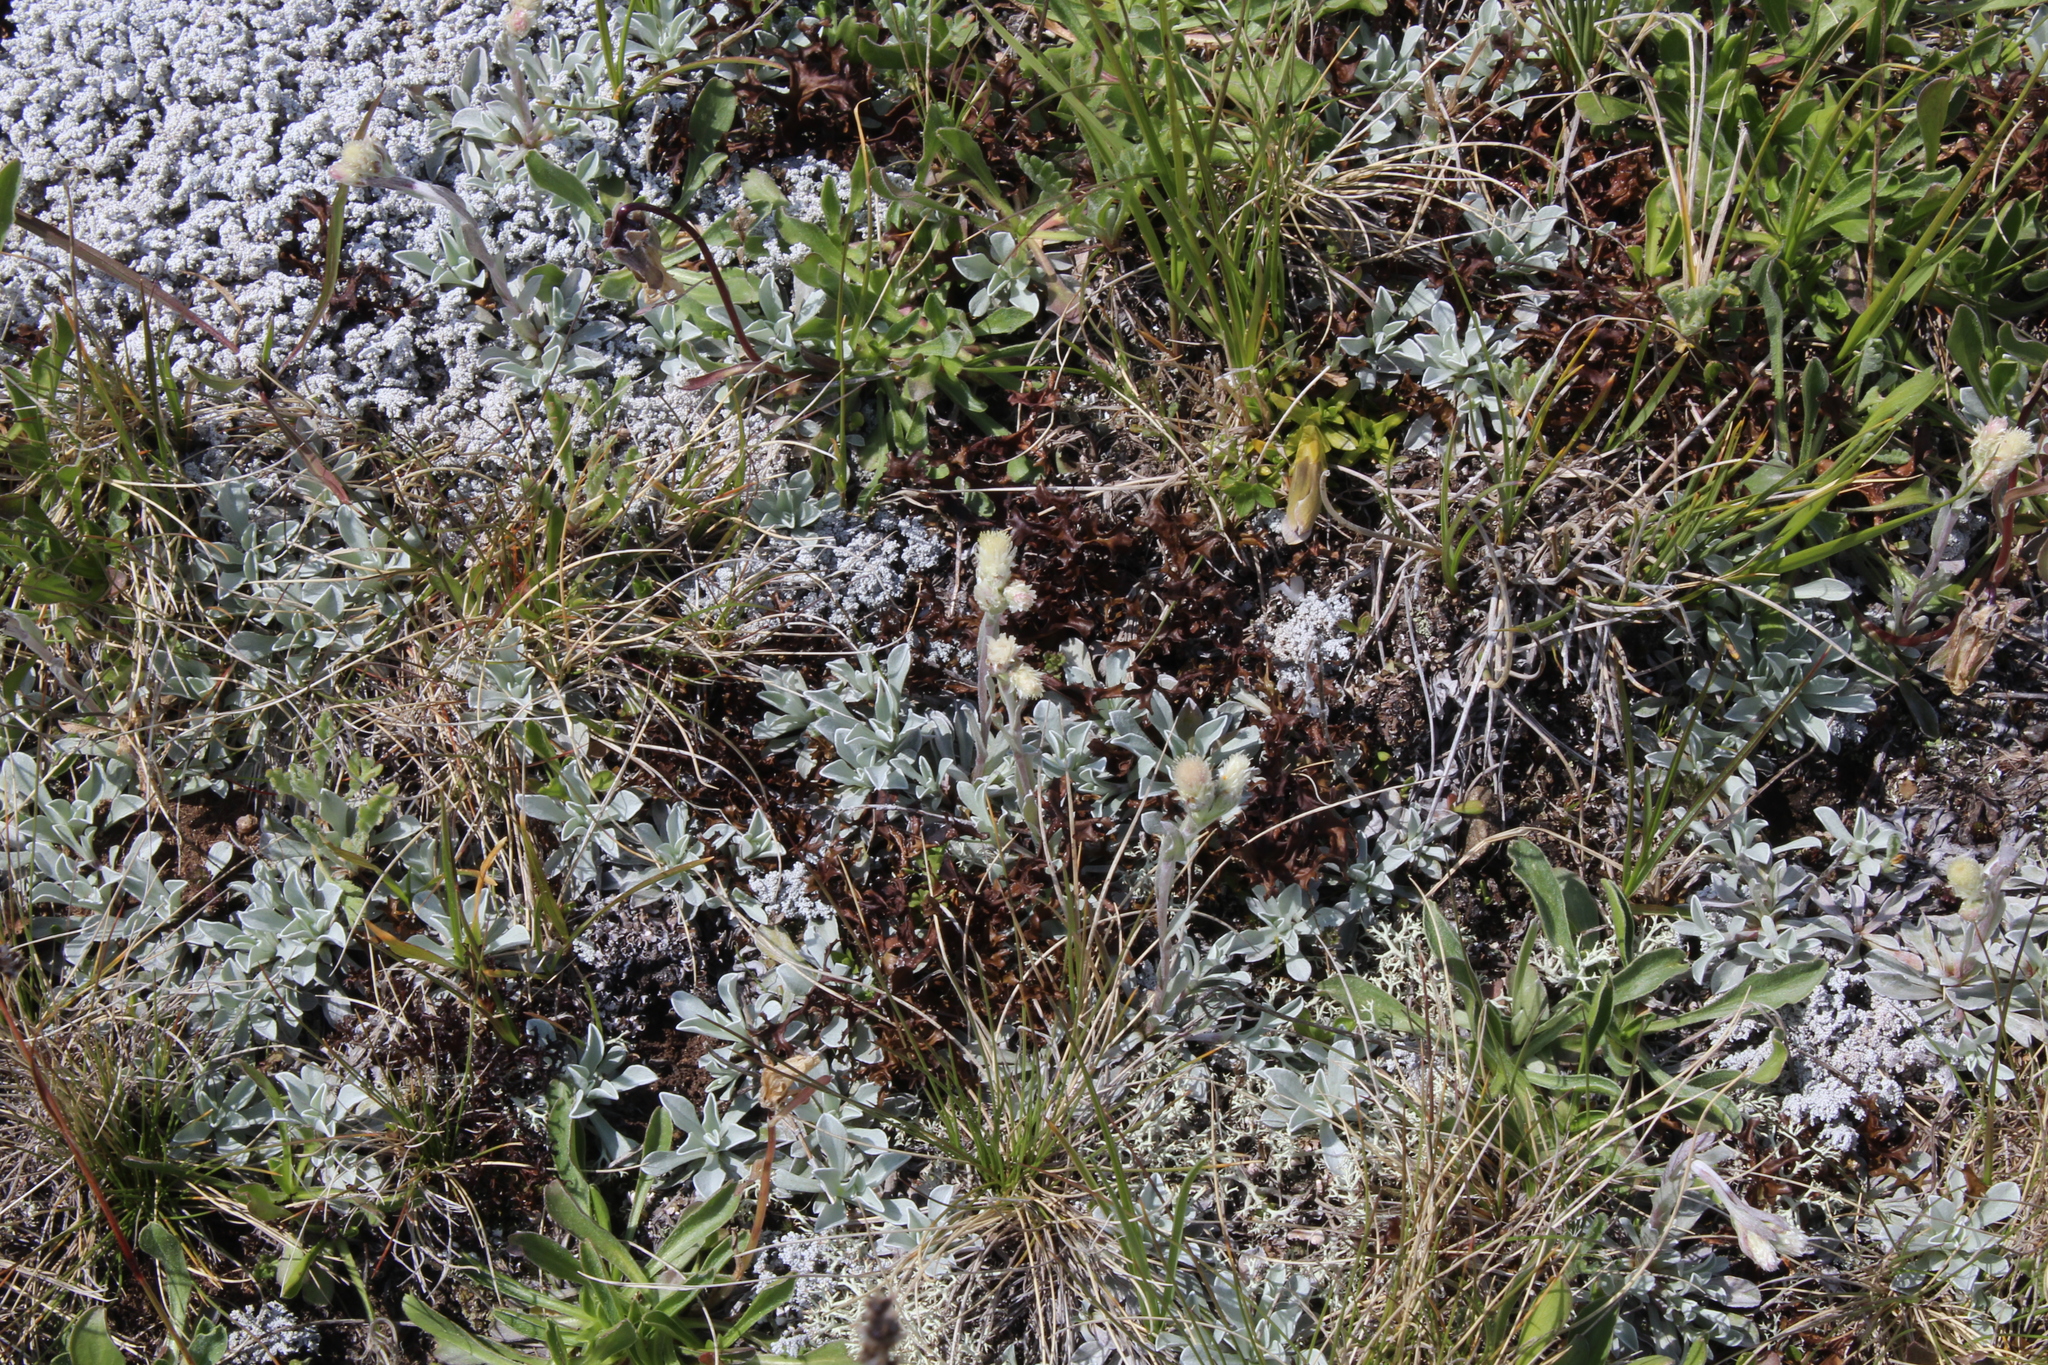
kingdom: Plantae
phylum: Tracheophyta
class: Magnoliopsida
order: Asterales
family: Asteraceae
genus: Antennaria
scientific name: Antennaria caucasica
